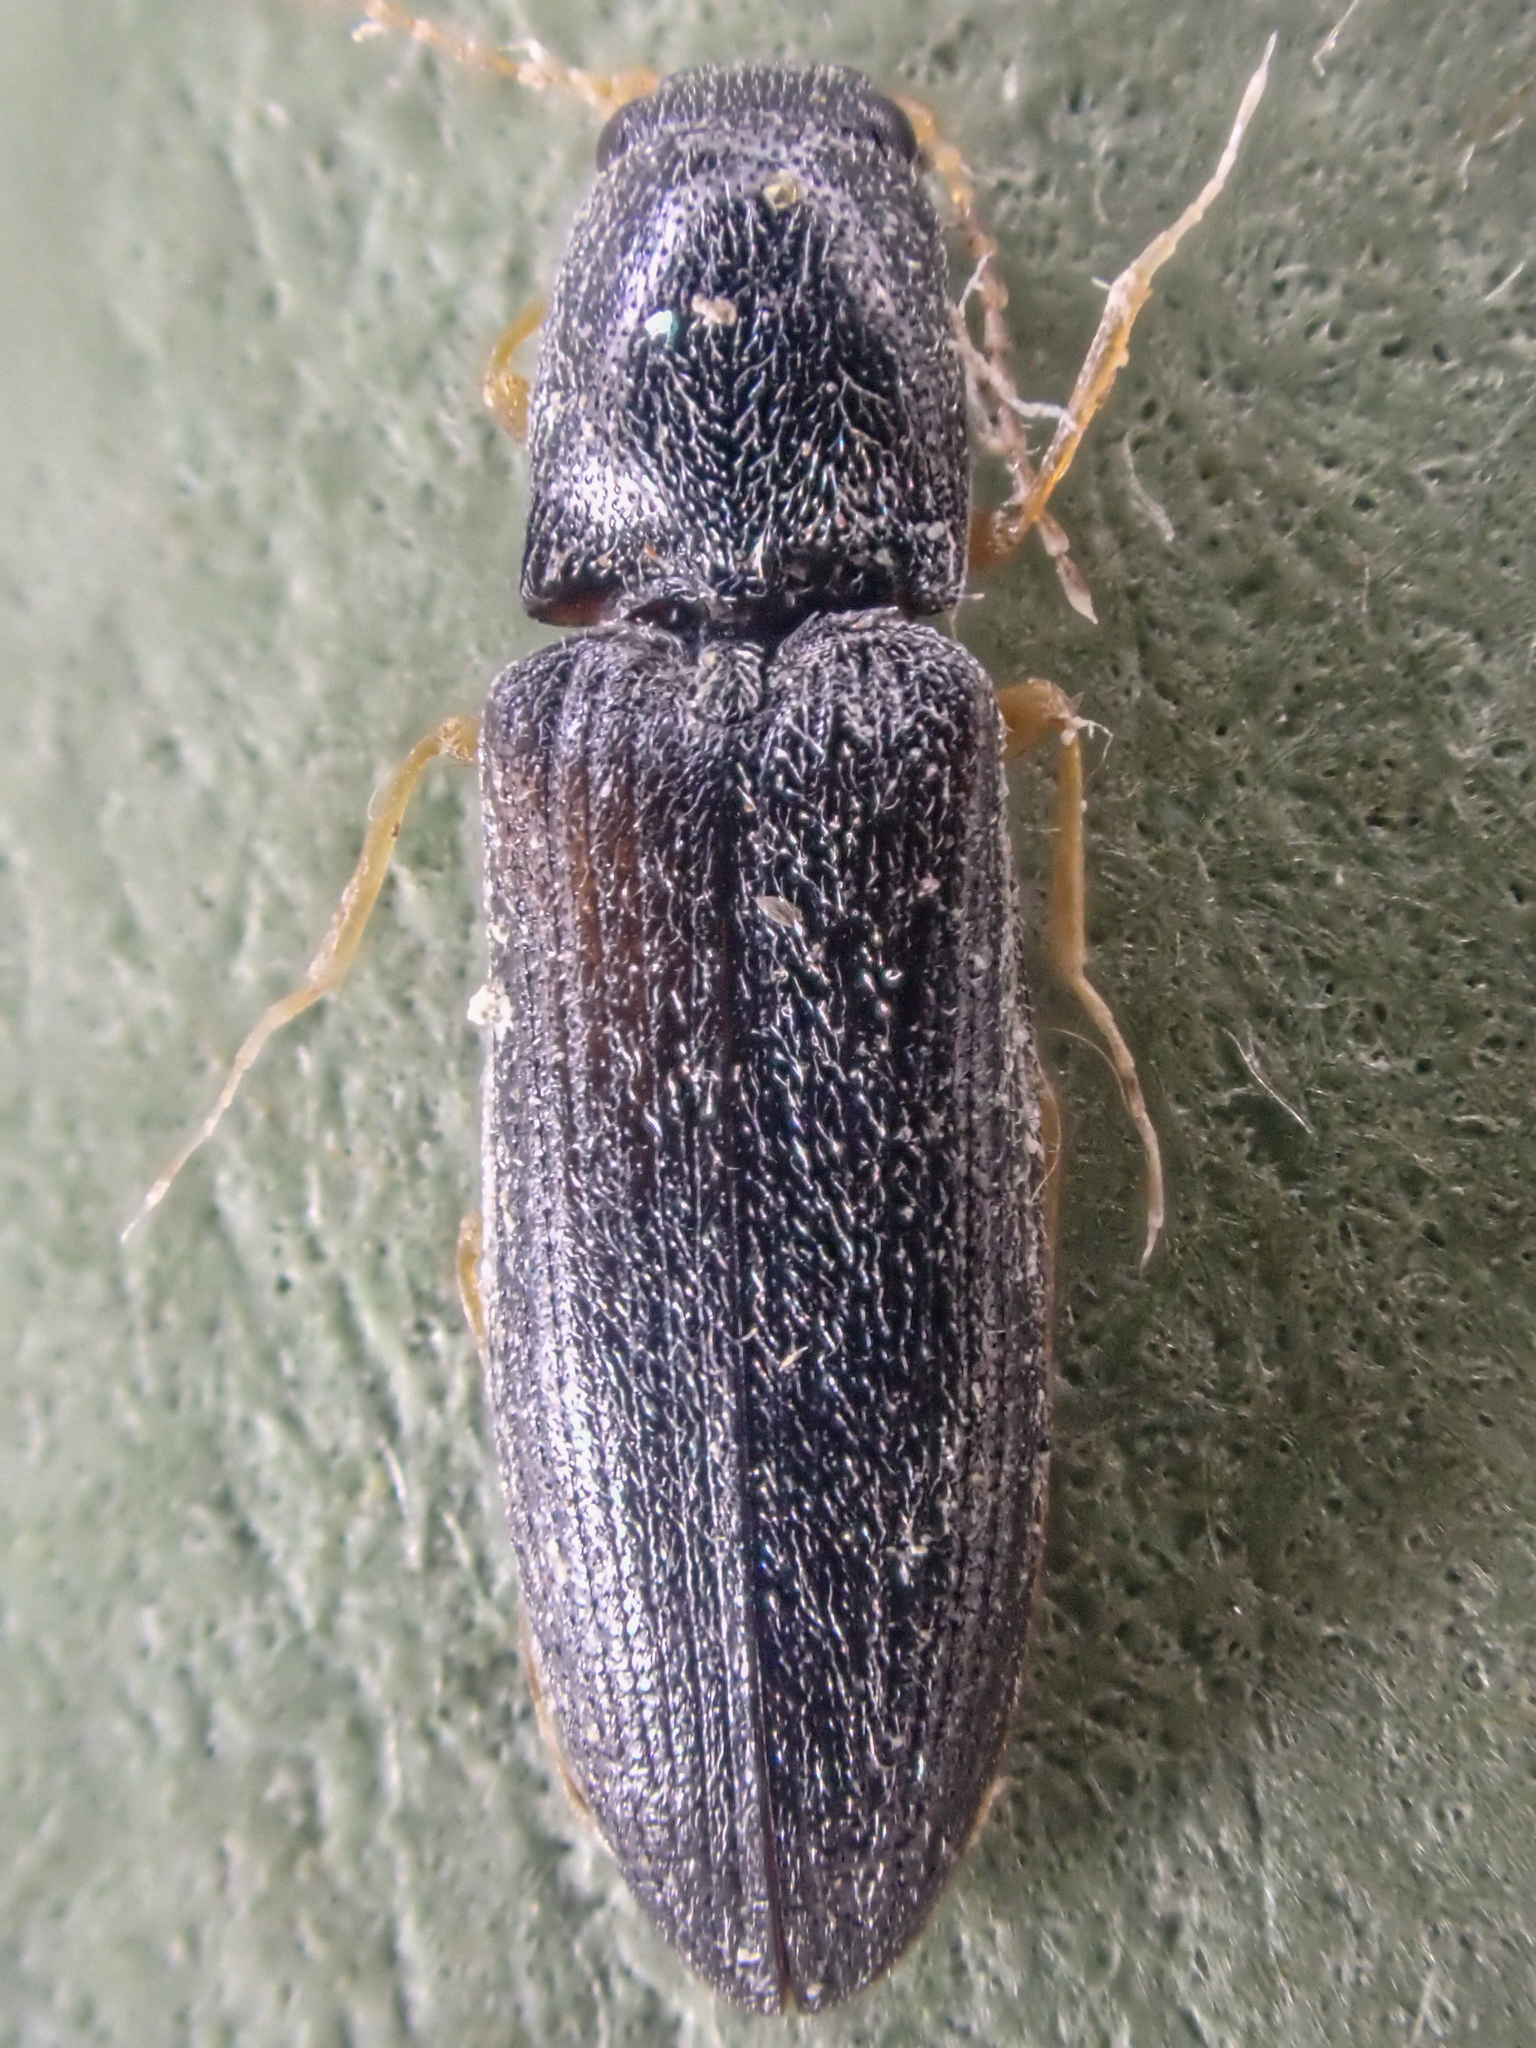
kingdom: Animalia
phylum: Arthropoda
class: Insecta
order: Coleoptera
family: Elateridae
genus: Limonius
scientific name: Limonius aeger
